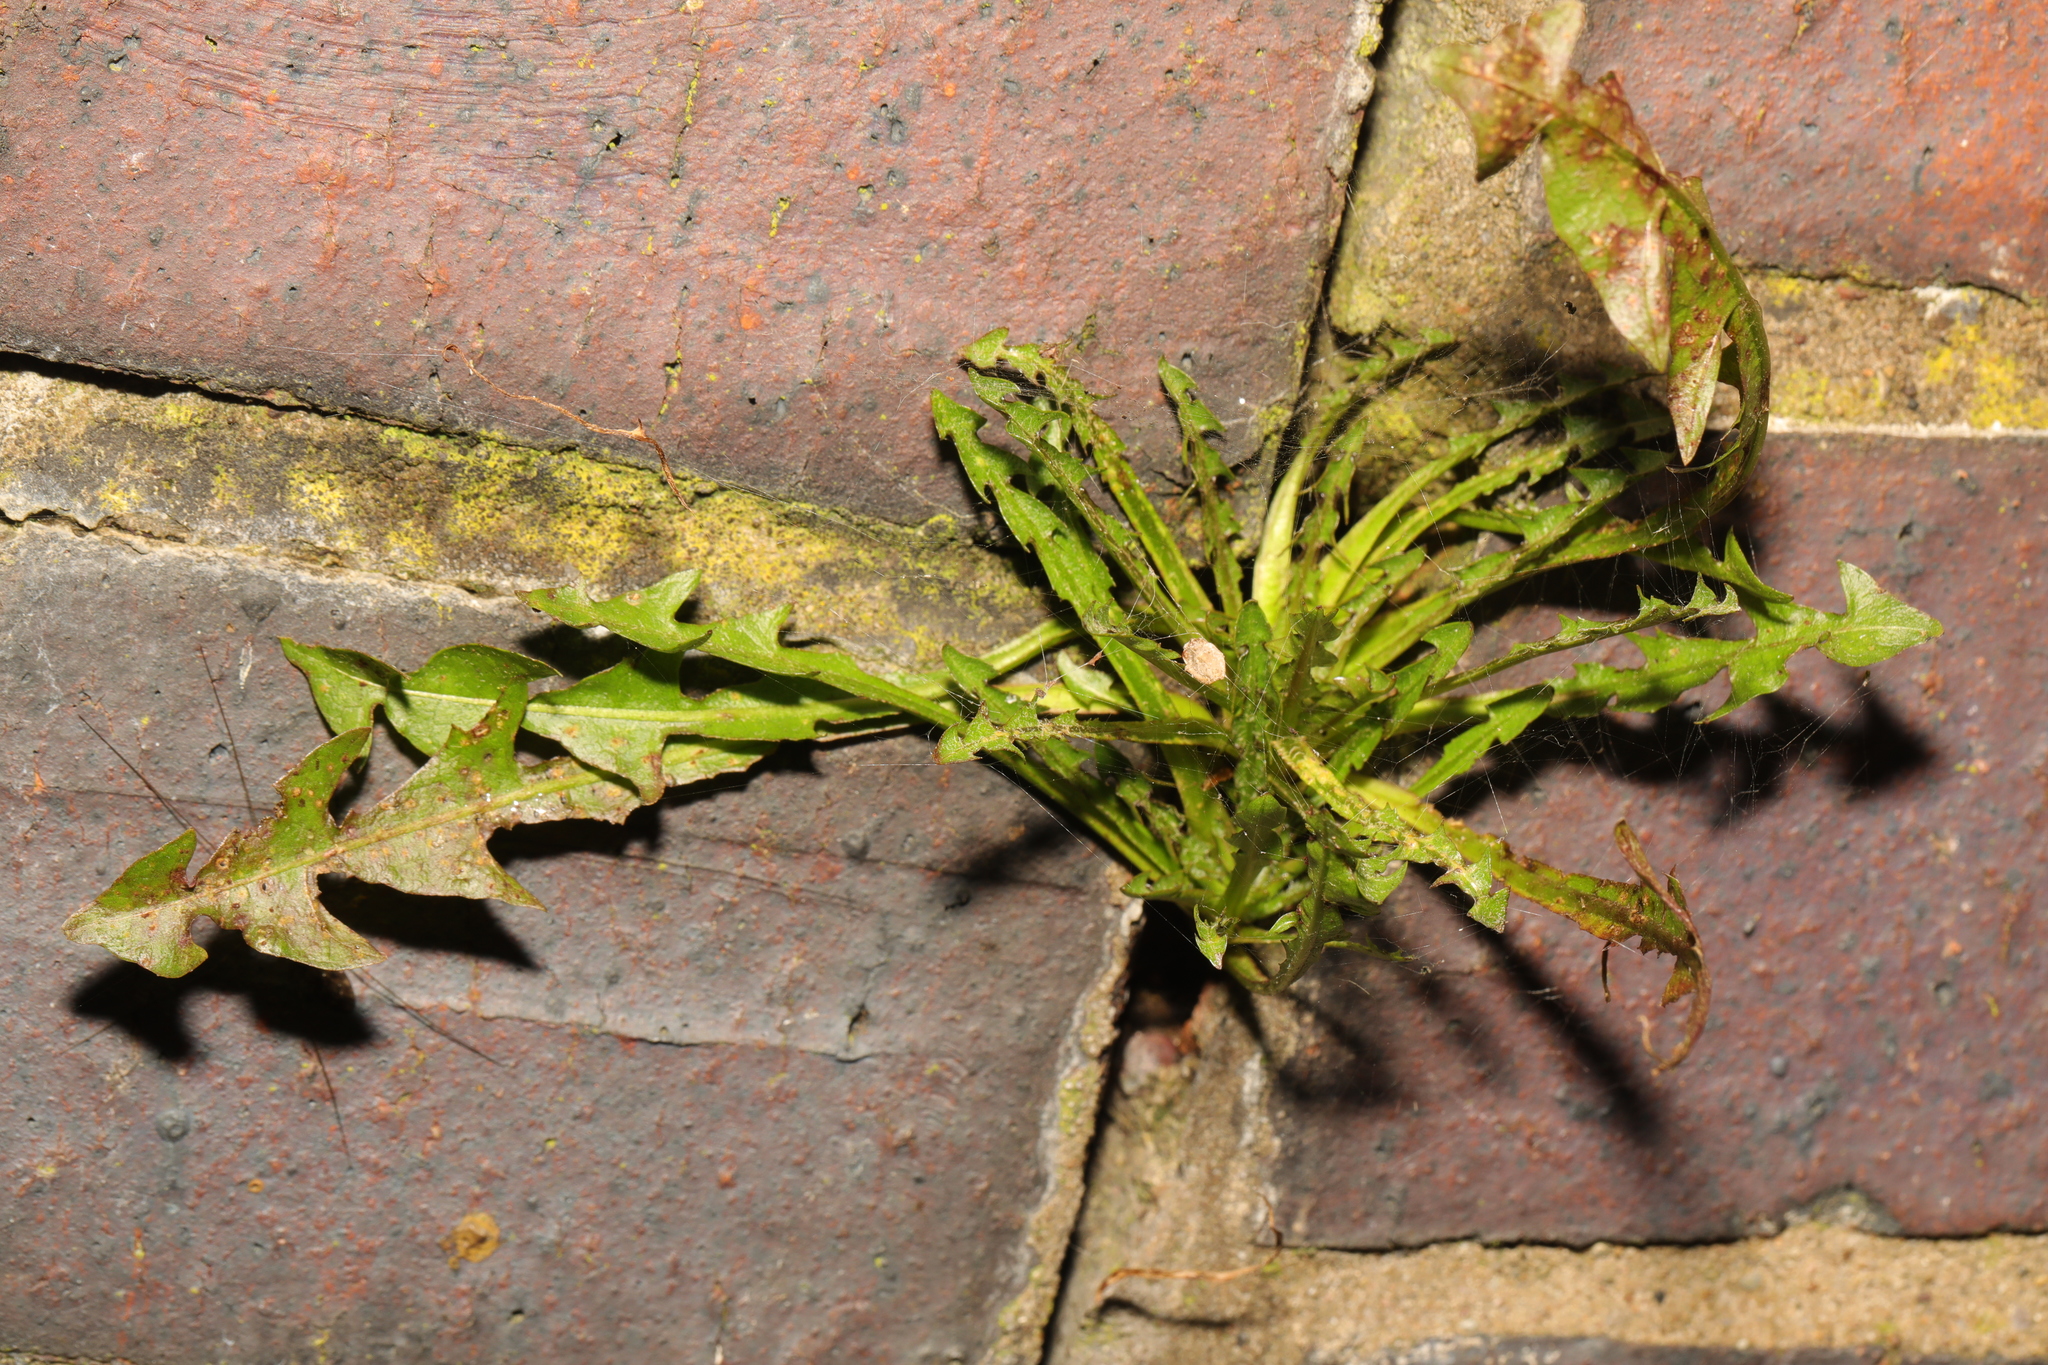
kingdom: Plantae
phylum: Tracheophyta
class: Magnoliopsida
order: Asterales
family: Asteraceae
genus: Taraxacum
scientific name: Taraxacum officinale
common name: Common dandelion
